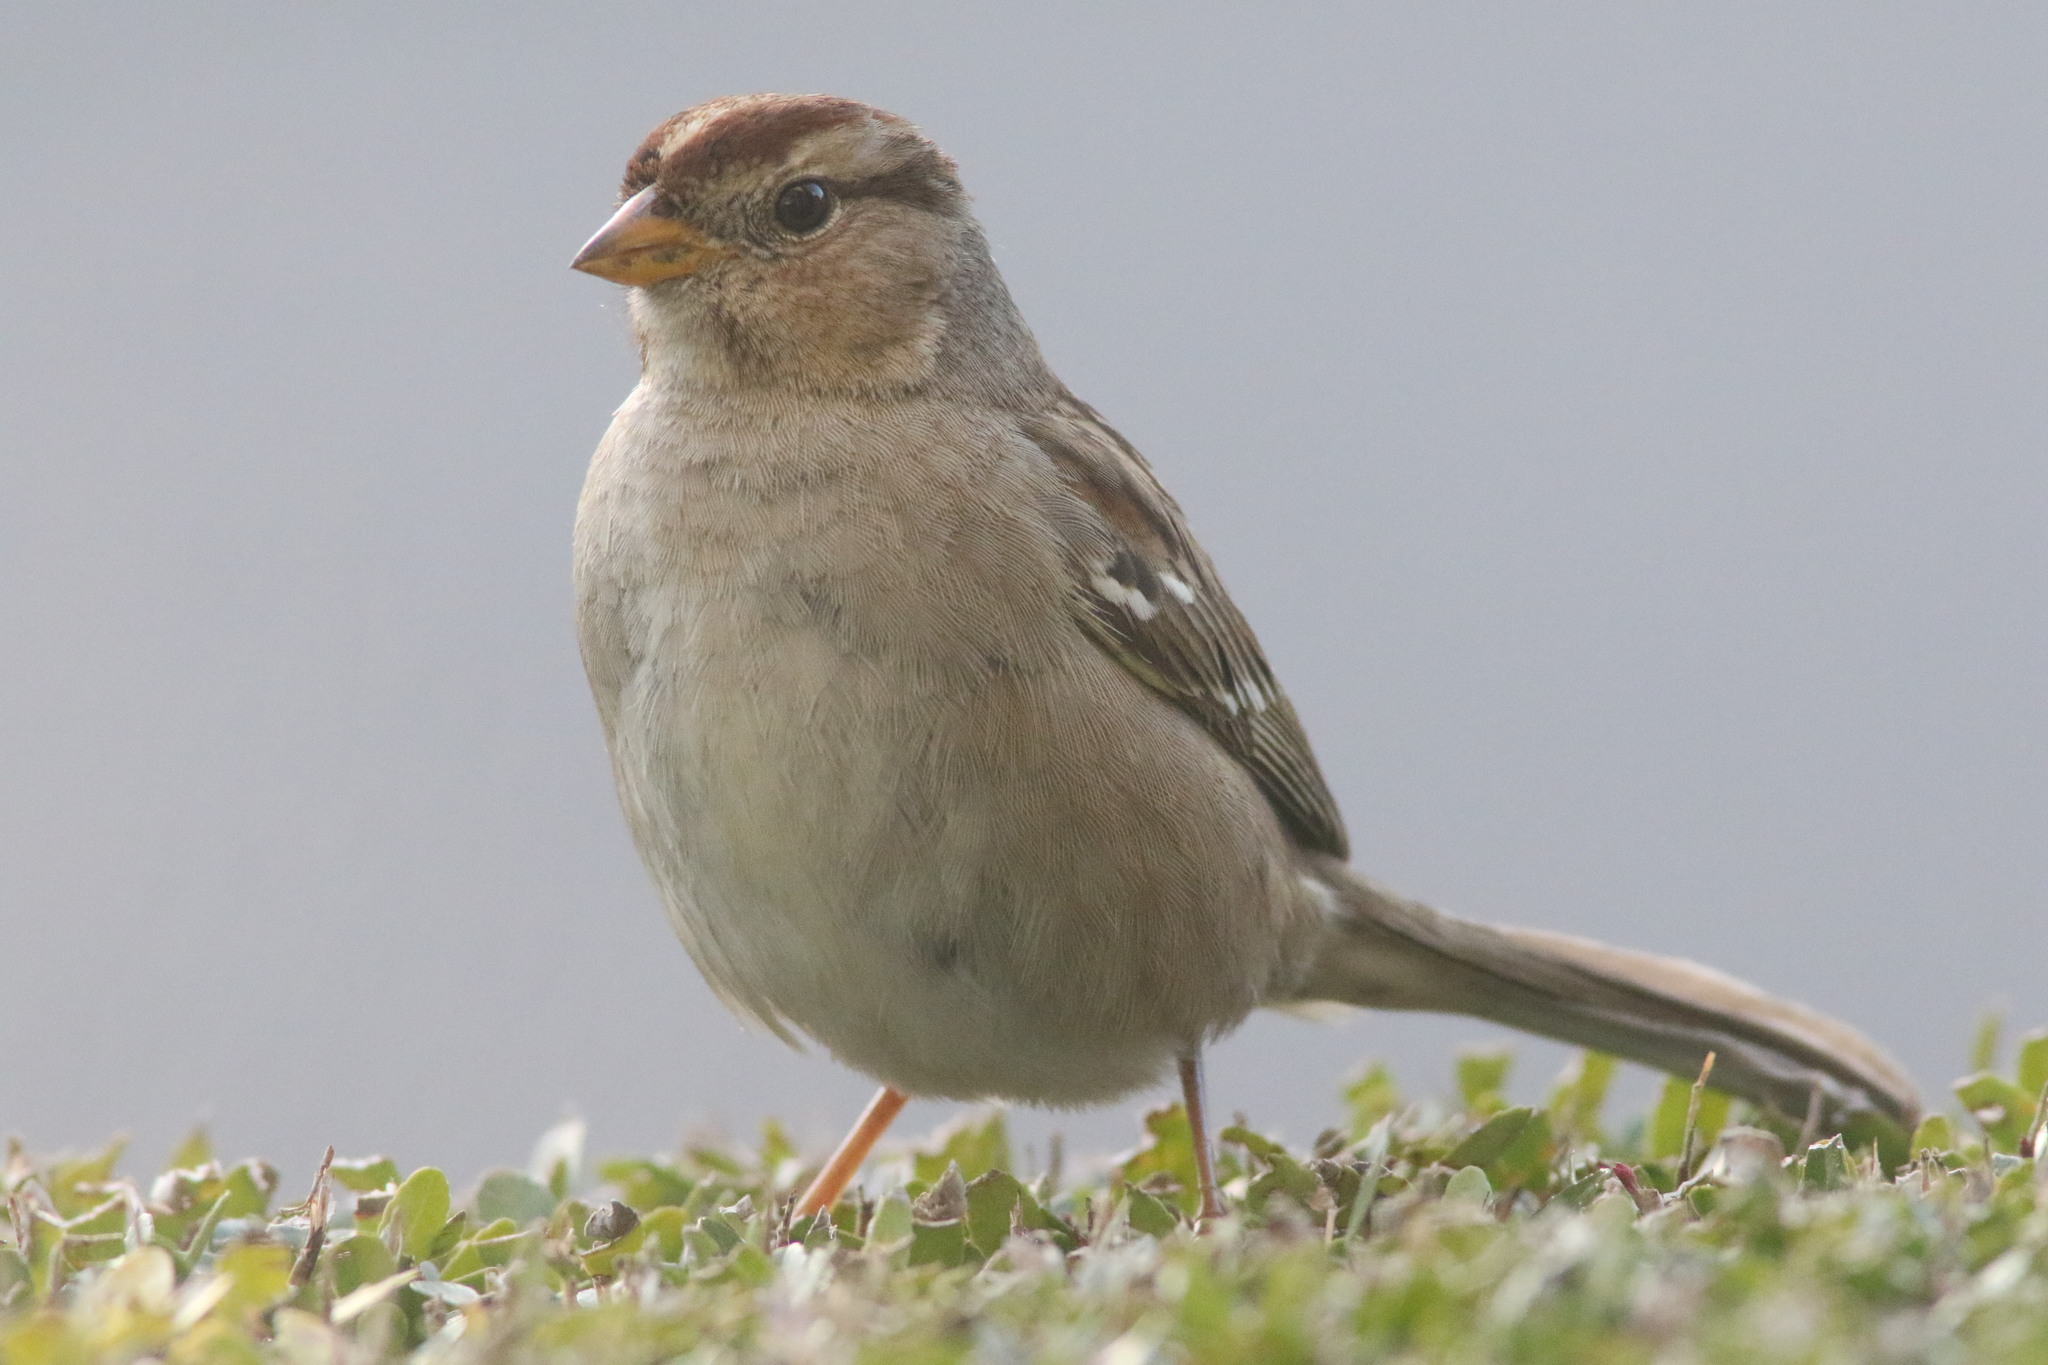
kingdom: Animalia
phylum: Chordata
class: Aves
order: Passeriformes
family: Passerellidae
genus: Zonotrichia
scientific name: Zonotrichia leucophrys
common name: White-crowned sparrow
